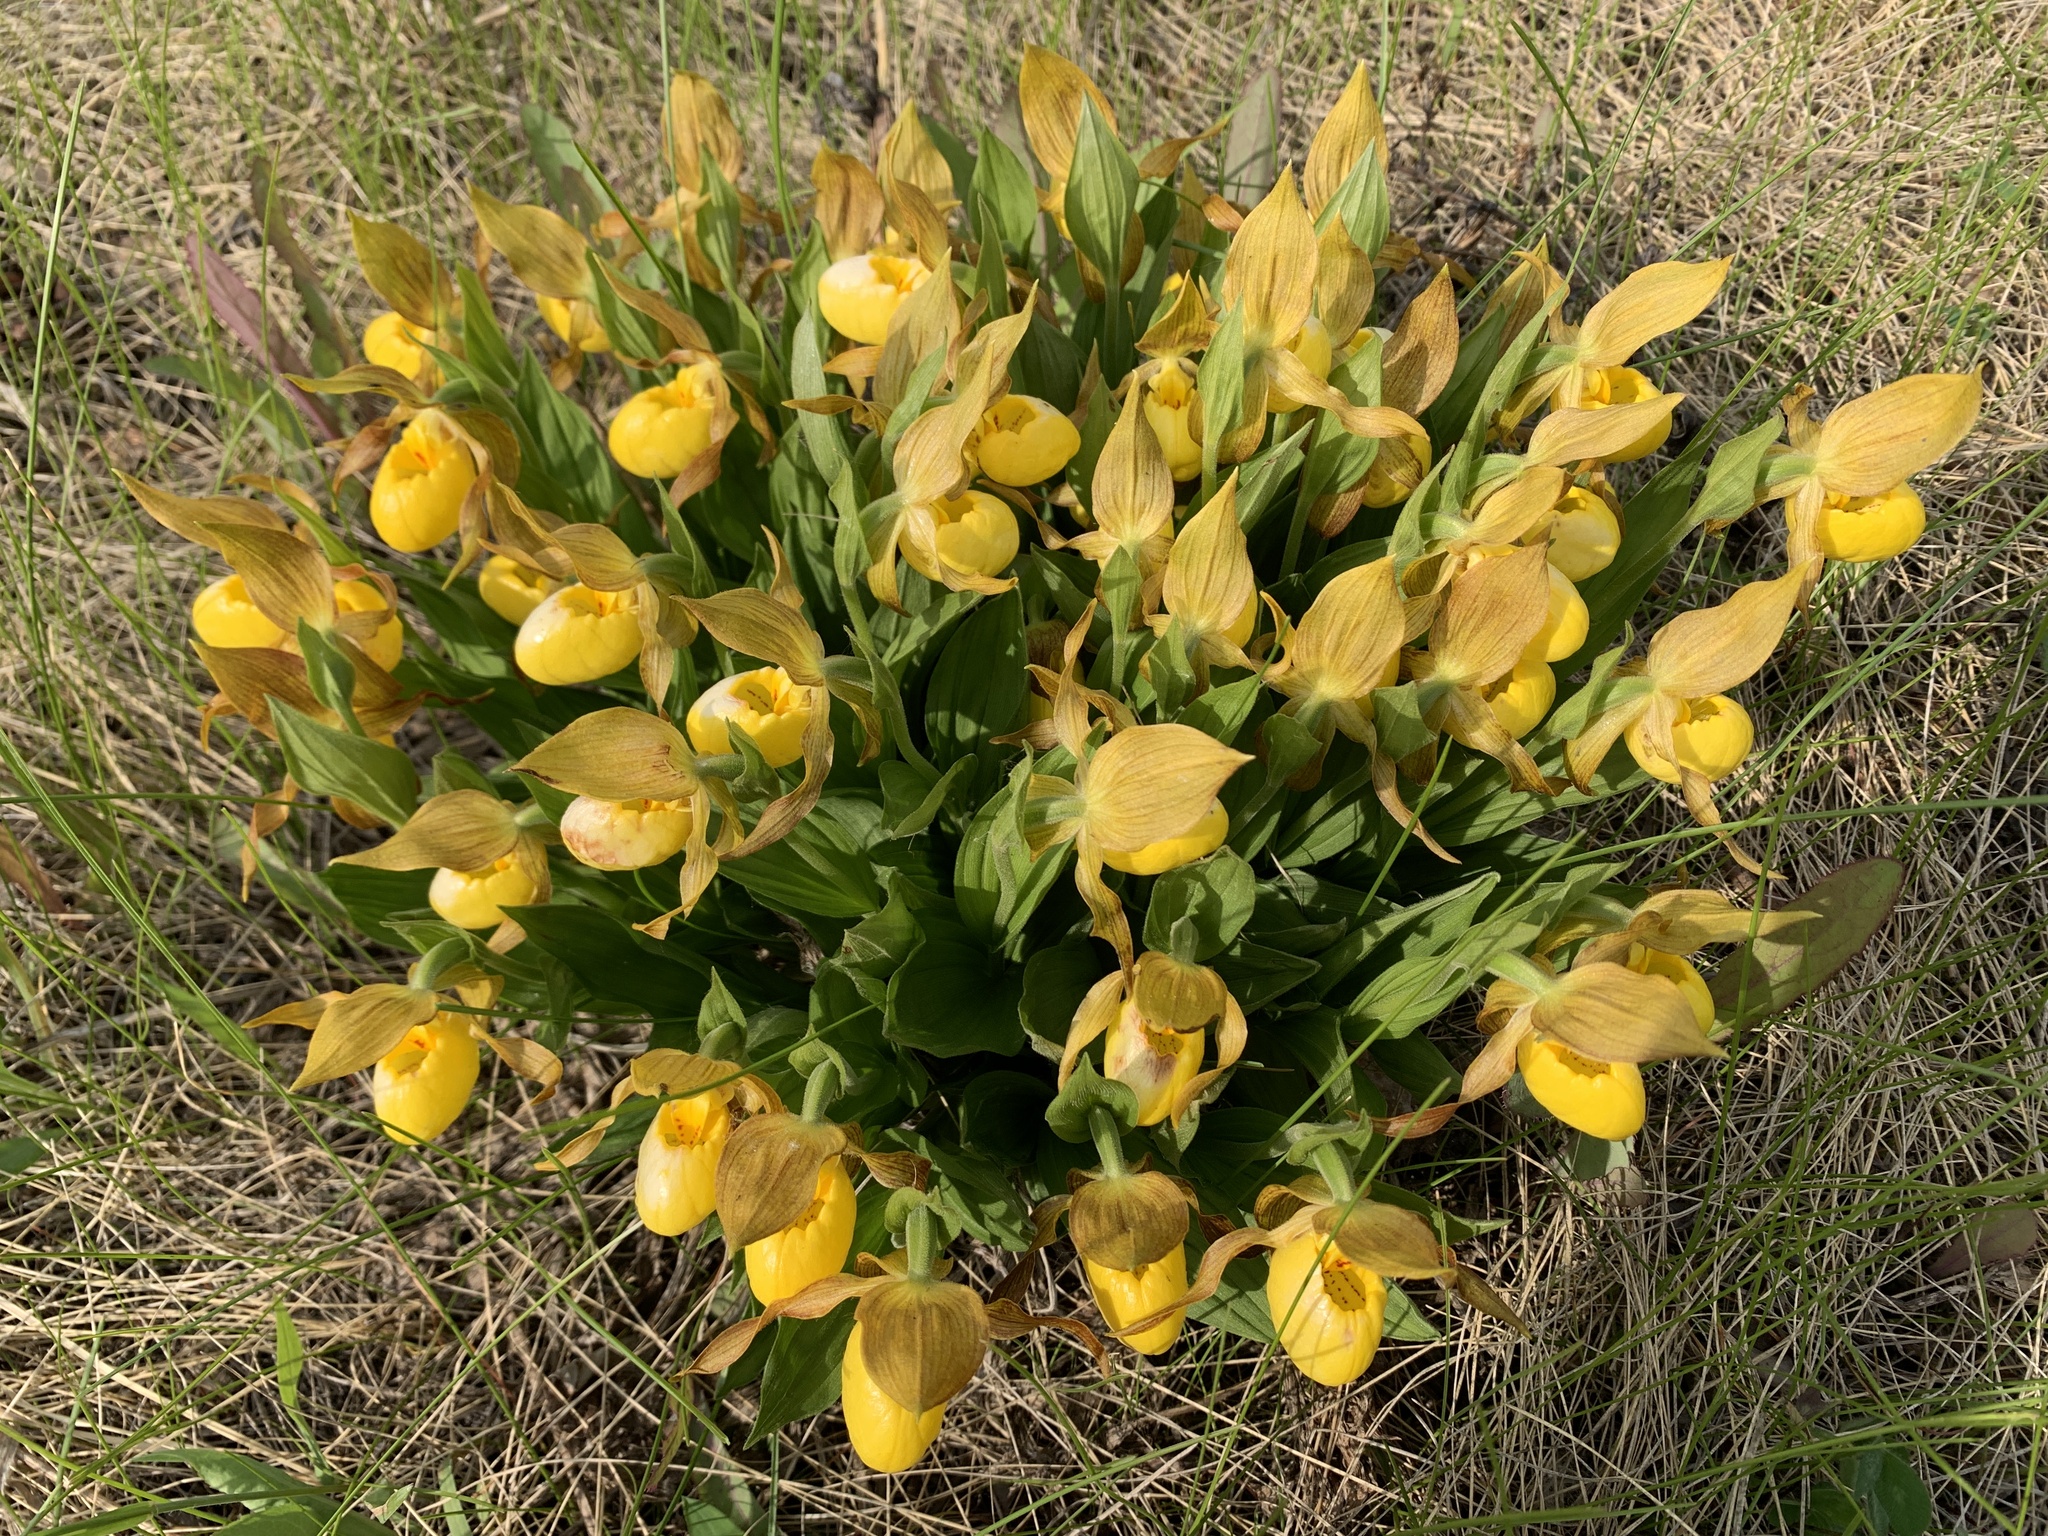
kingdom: Plantae
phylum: Tracheophyta
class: Liliopsida
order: Asparagales
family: Orchidaceae
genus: Cypripedium
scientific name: Cypripedium parviflorum
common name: American yellow lady's-slipper
